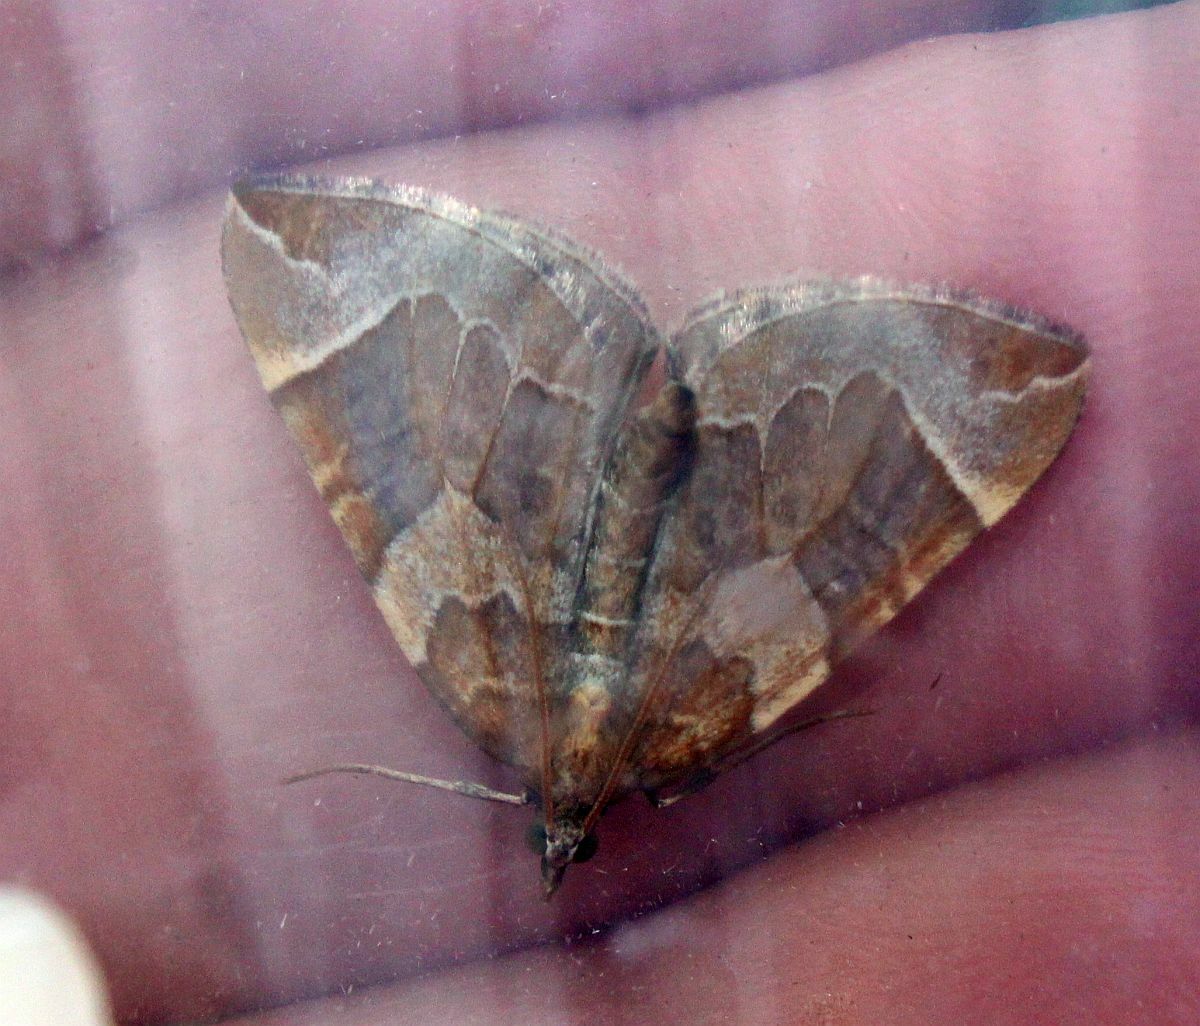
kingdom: Animalia
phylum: Arthropoda
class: Insecta
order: Lepidoptera
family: Geometridae
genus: Eulithis
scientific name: Eulithis testata
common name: Chevron
